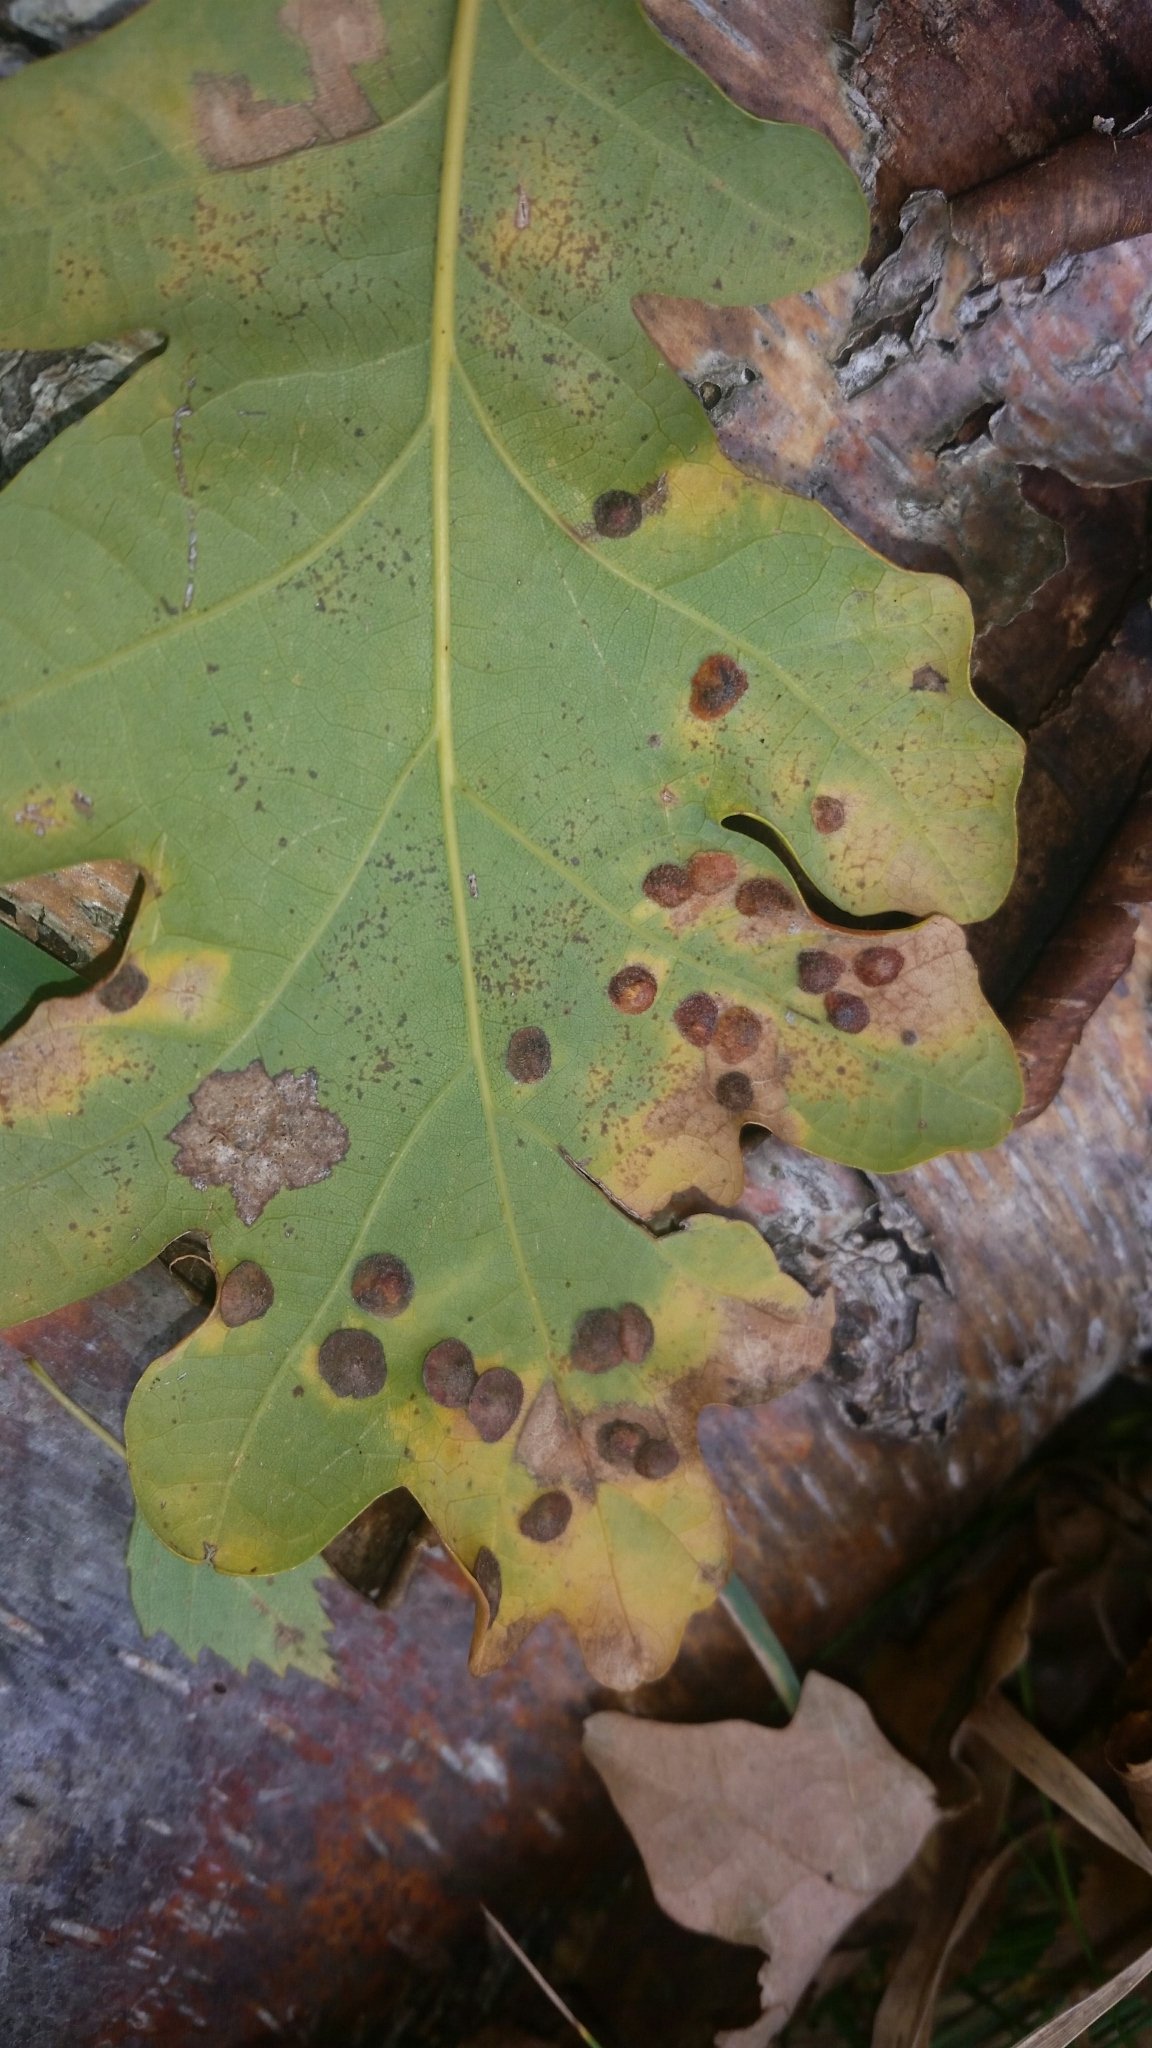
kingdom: Animalia
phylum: Arthropoda
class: Insecta
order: Hymenoptera
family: Cynipidae
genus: Neuroterus
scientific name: Neuroterus quercusbaccarum
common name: Common spangle gall
